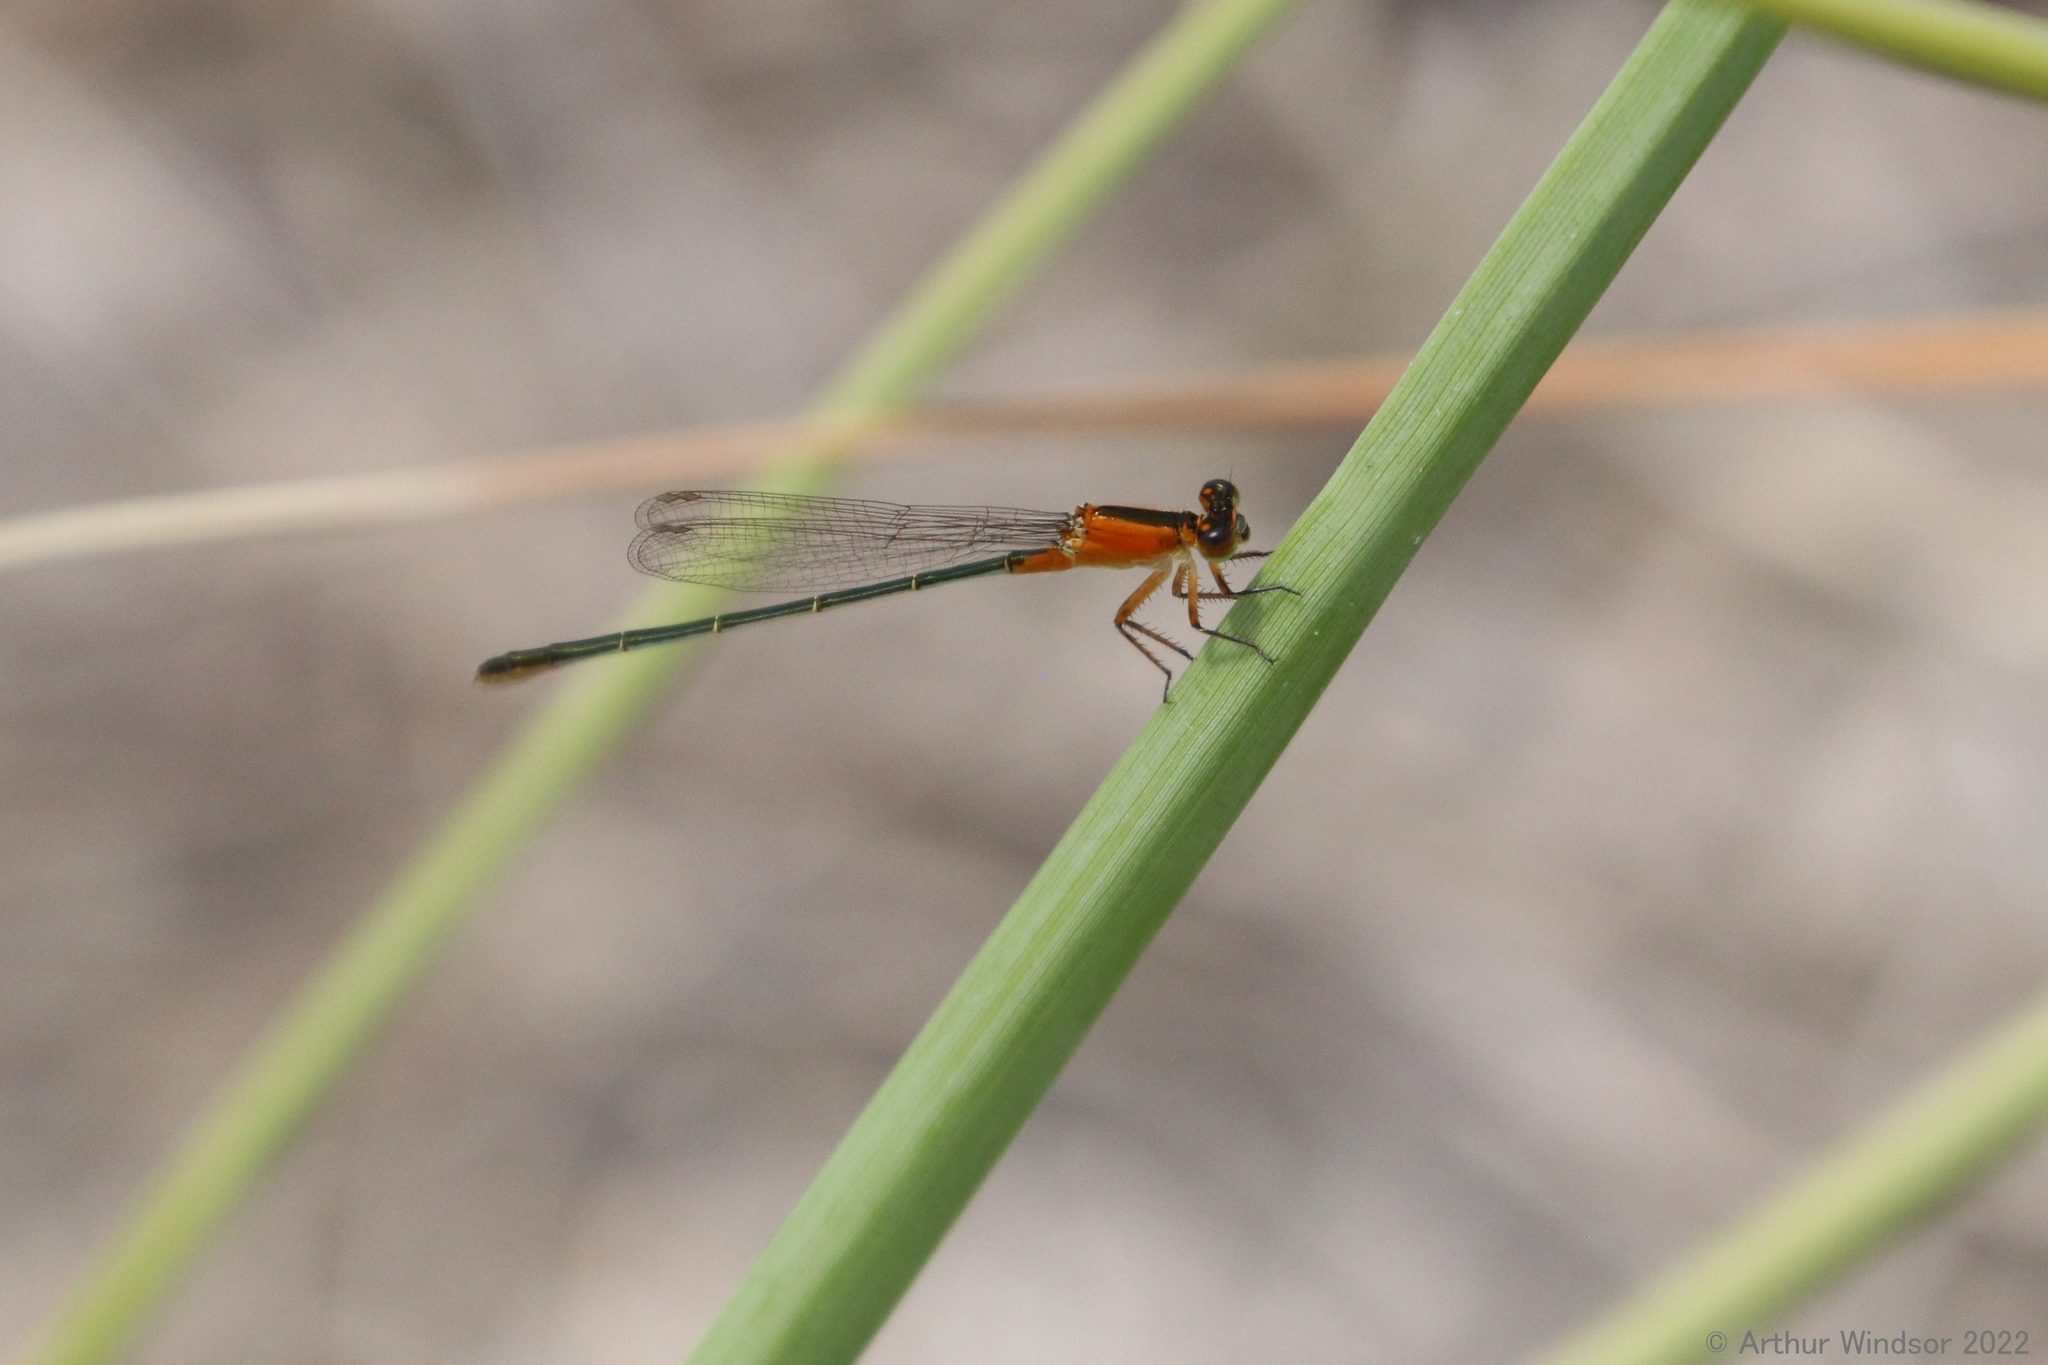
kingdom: Animalia
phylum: Arthropoda
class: Insecta
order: Odonata
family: Coenagrionidae
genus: Ischnura
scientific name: Ischnura ramburii
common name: Rambur's forktail
